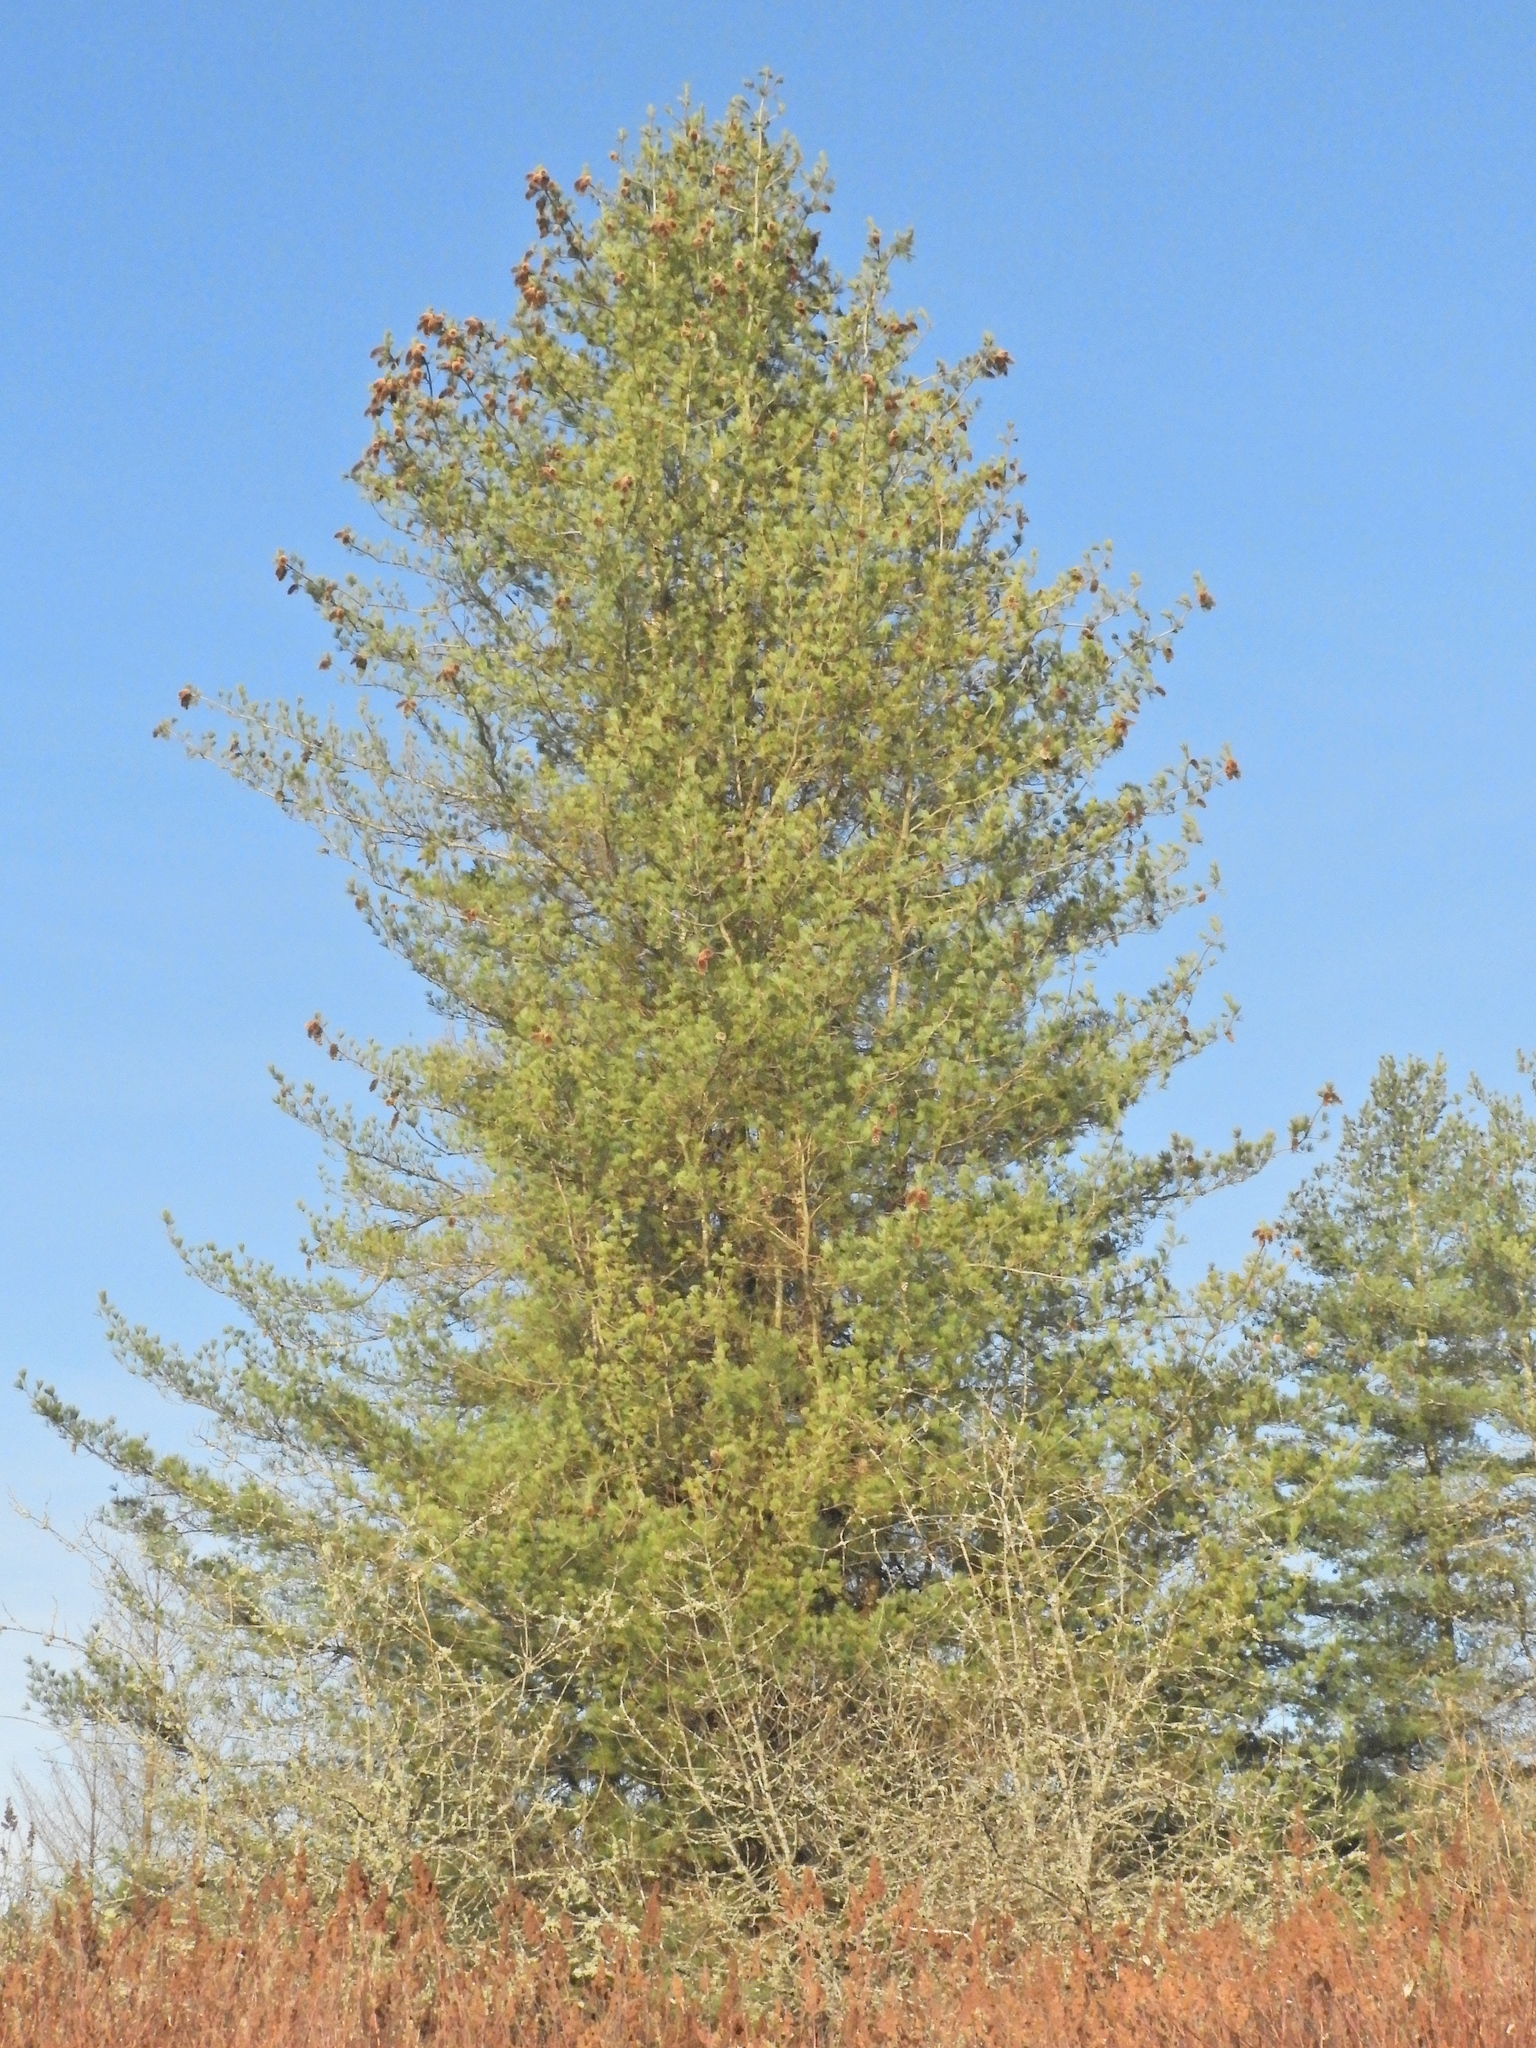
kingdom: Plantae
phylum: Tracheophyta
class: Pinopsida
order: Pinales
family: Pinaceae
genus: Pinus
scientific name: Pinus monticola
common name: Western white pine
